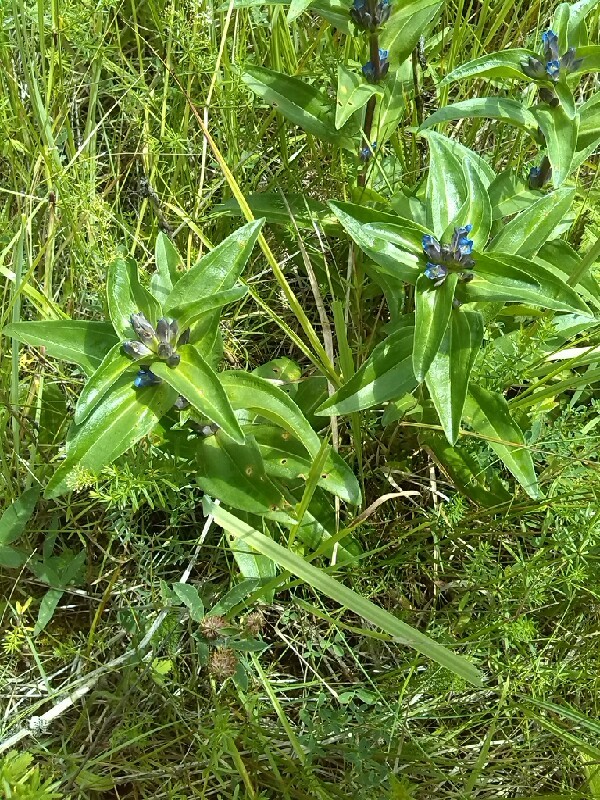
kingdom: Plantae
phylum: Tracheophyta
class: Magnoliopsida
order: Gentianales
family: Gentianaceae
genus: Gentiana
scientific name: Gentiana cruciata
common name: Cross gentian
